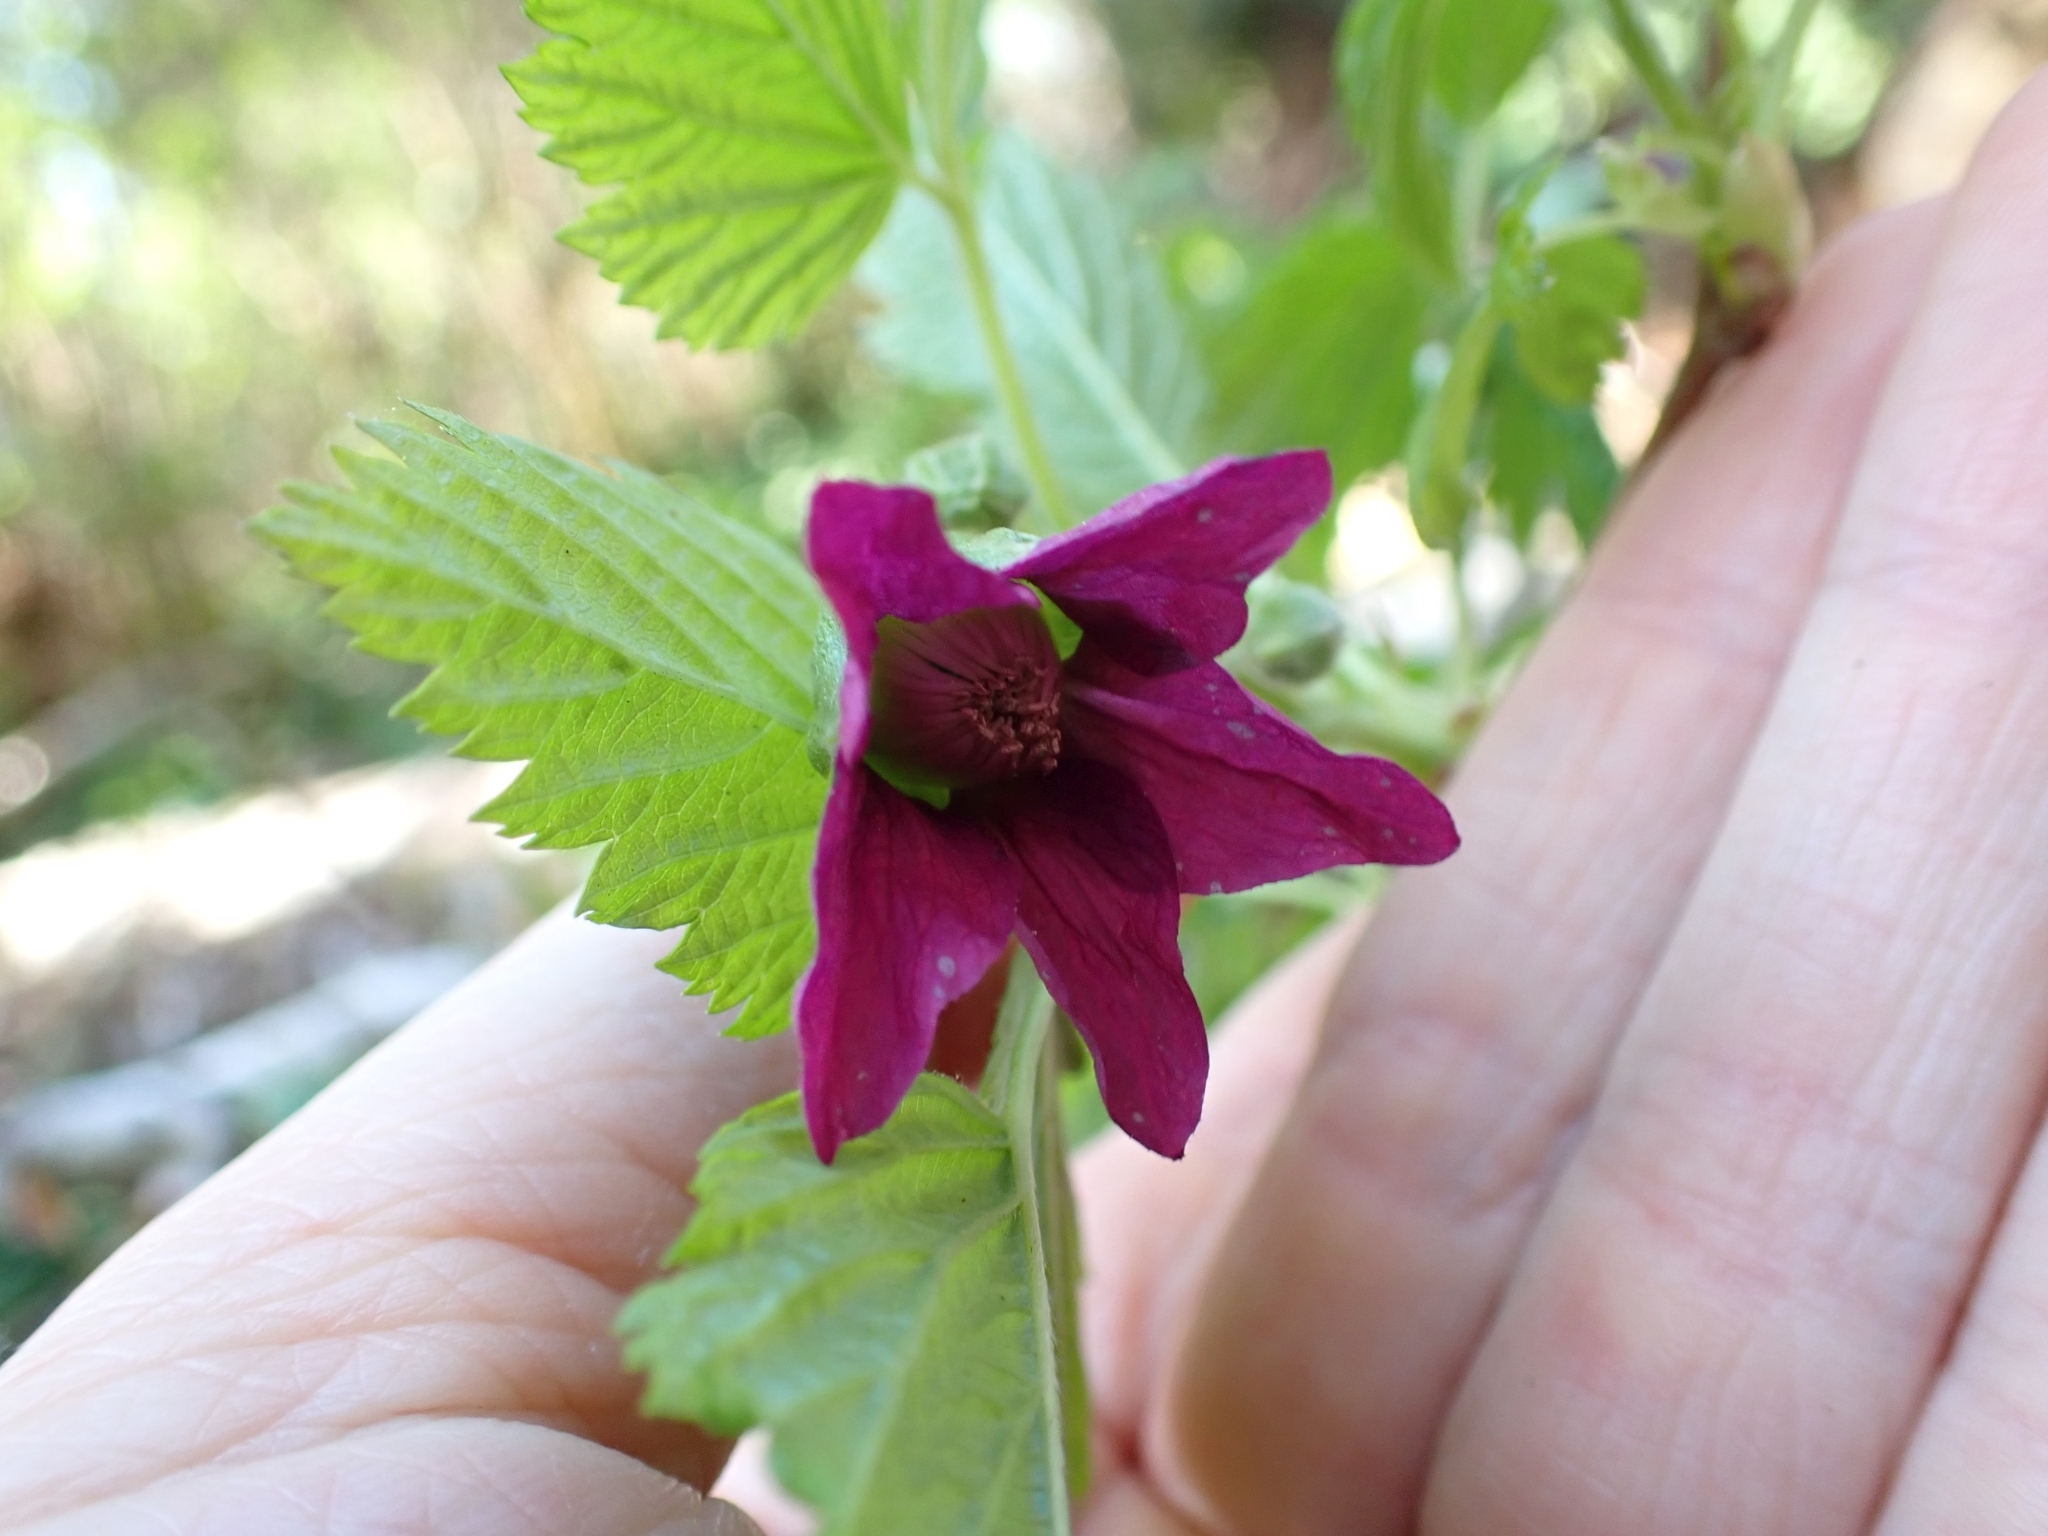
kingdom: Plantae
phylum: Tracheophyta
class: Magnoliopsida
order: Rosales
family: Rosaceae
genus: Rubus
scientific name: Rubus spectabilis
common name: Salmonberry
